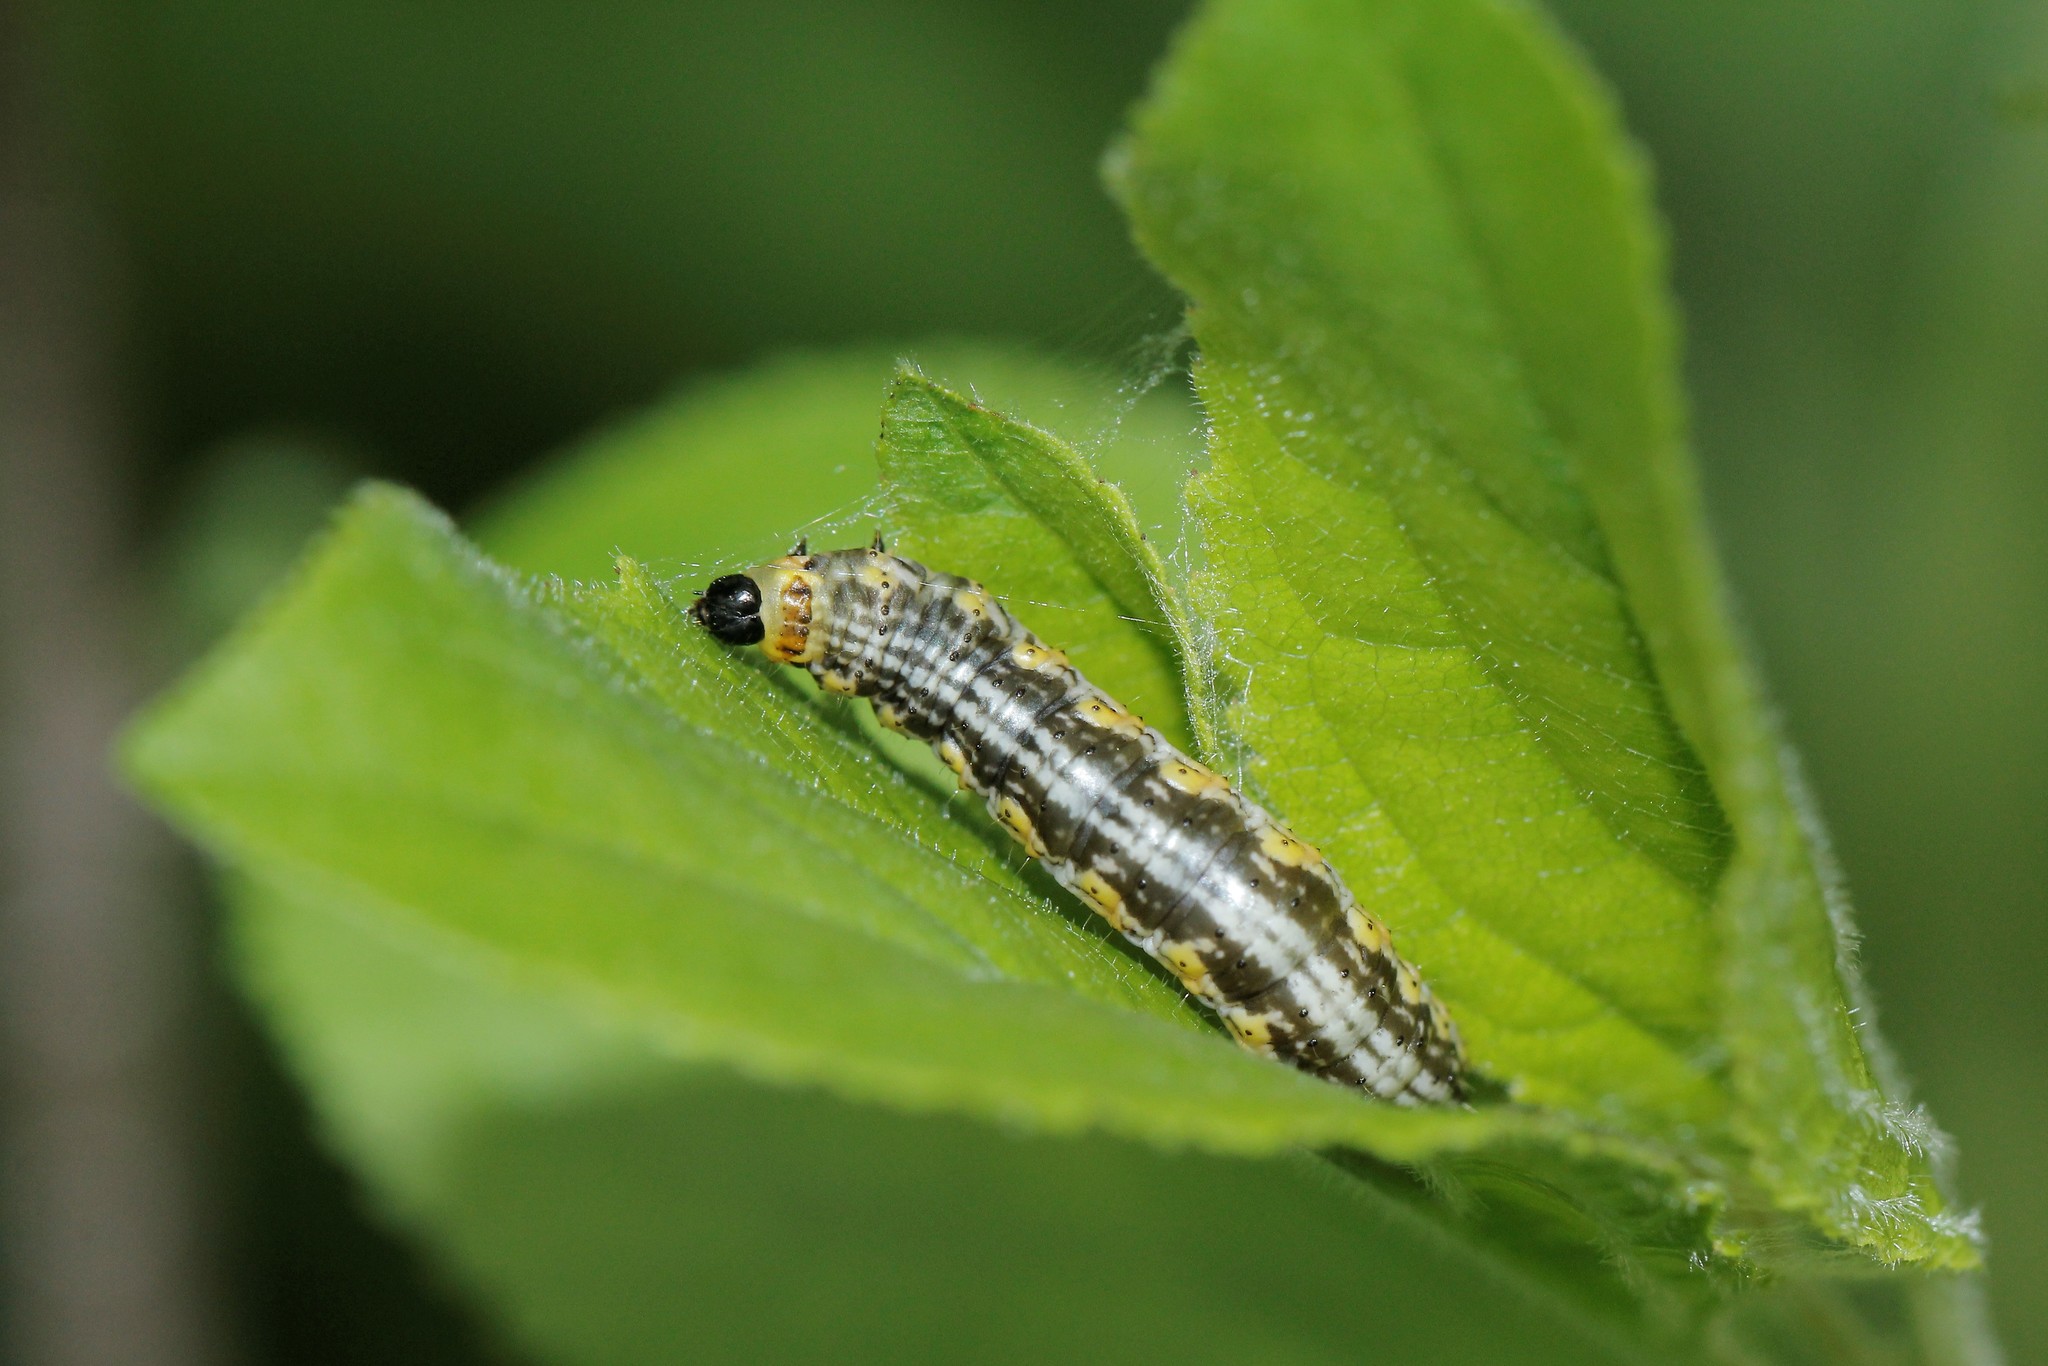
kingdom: Animalia
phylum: Arthropoda
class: Insecta
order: Lepidoptera
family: Geometridae
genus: Philereme
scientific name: Philereme vetulata
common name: Brown scallop
